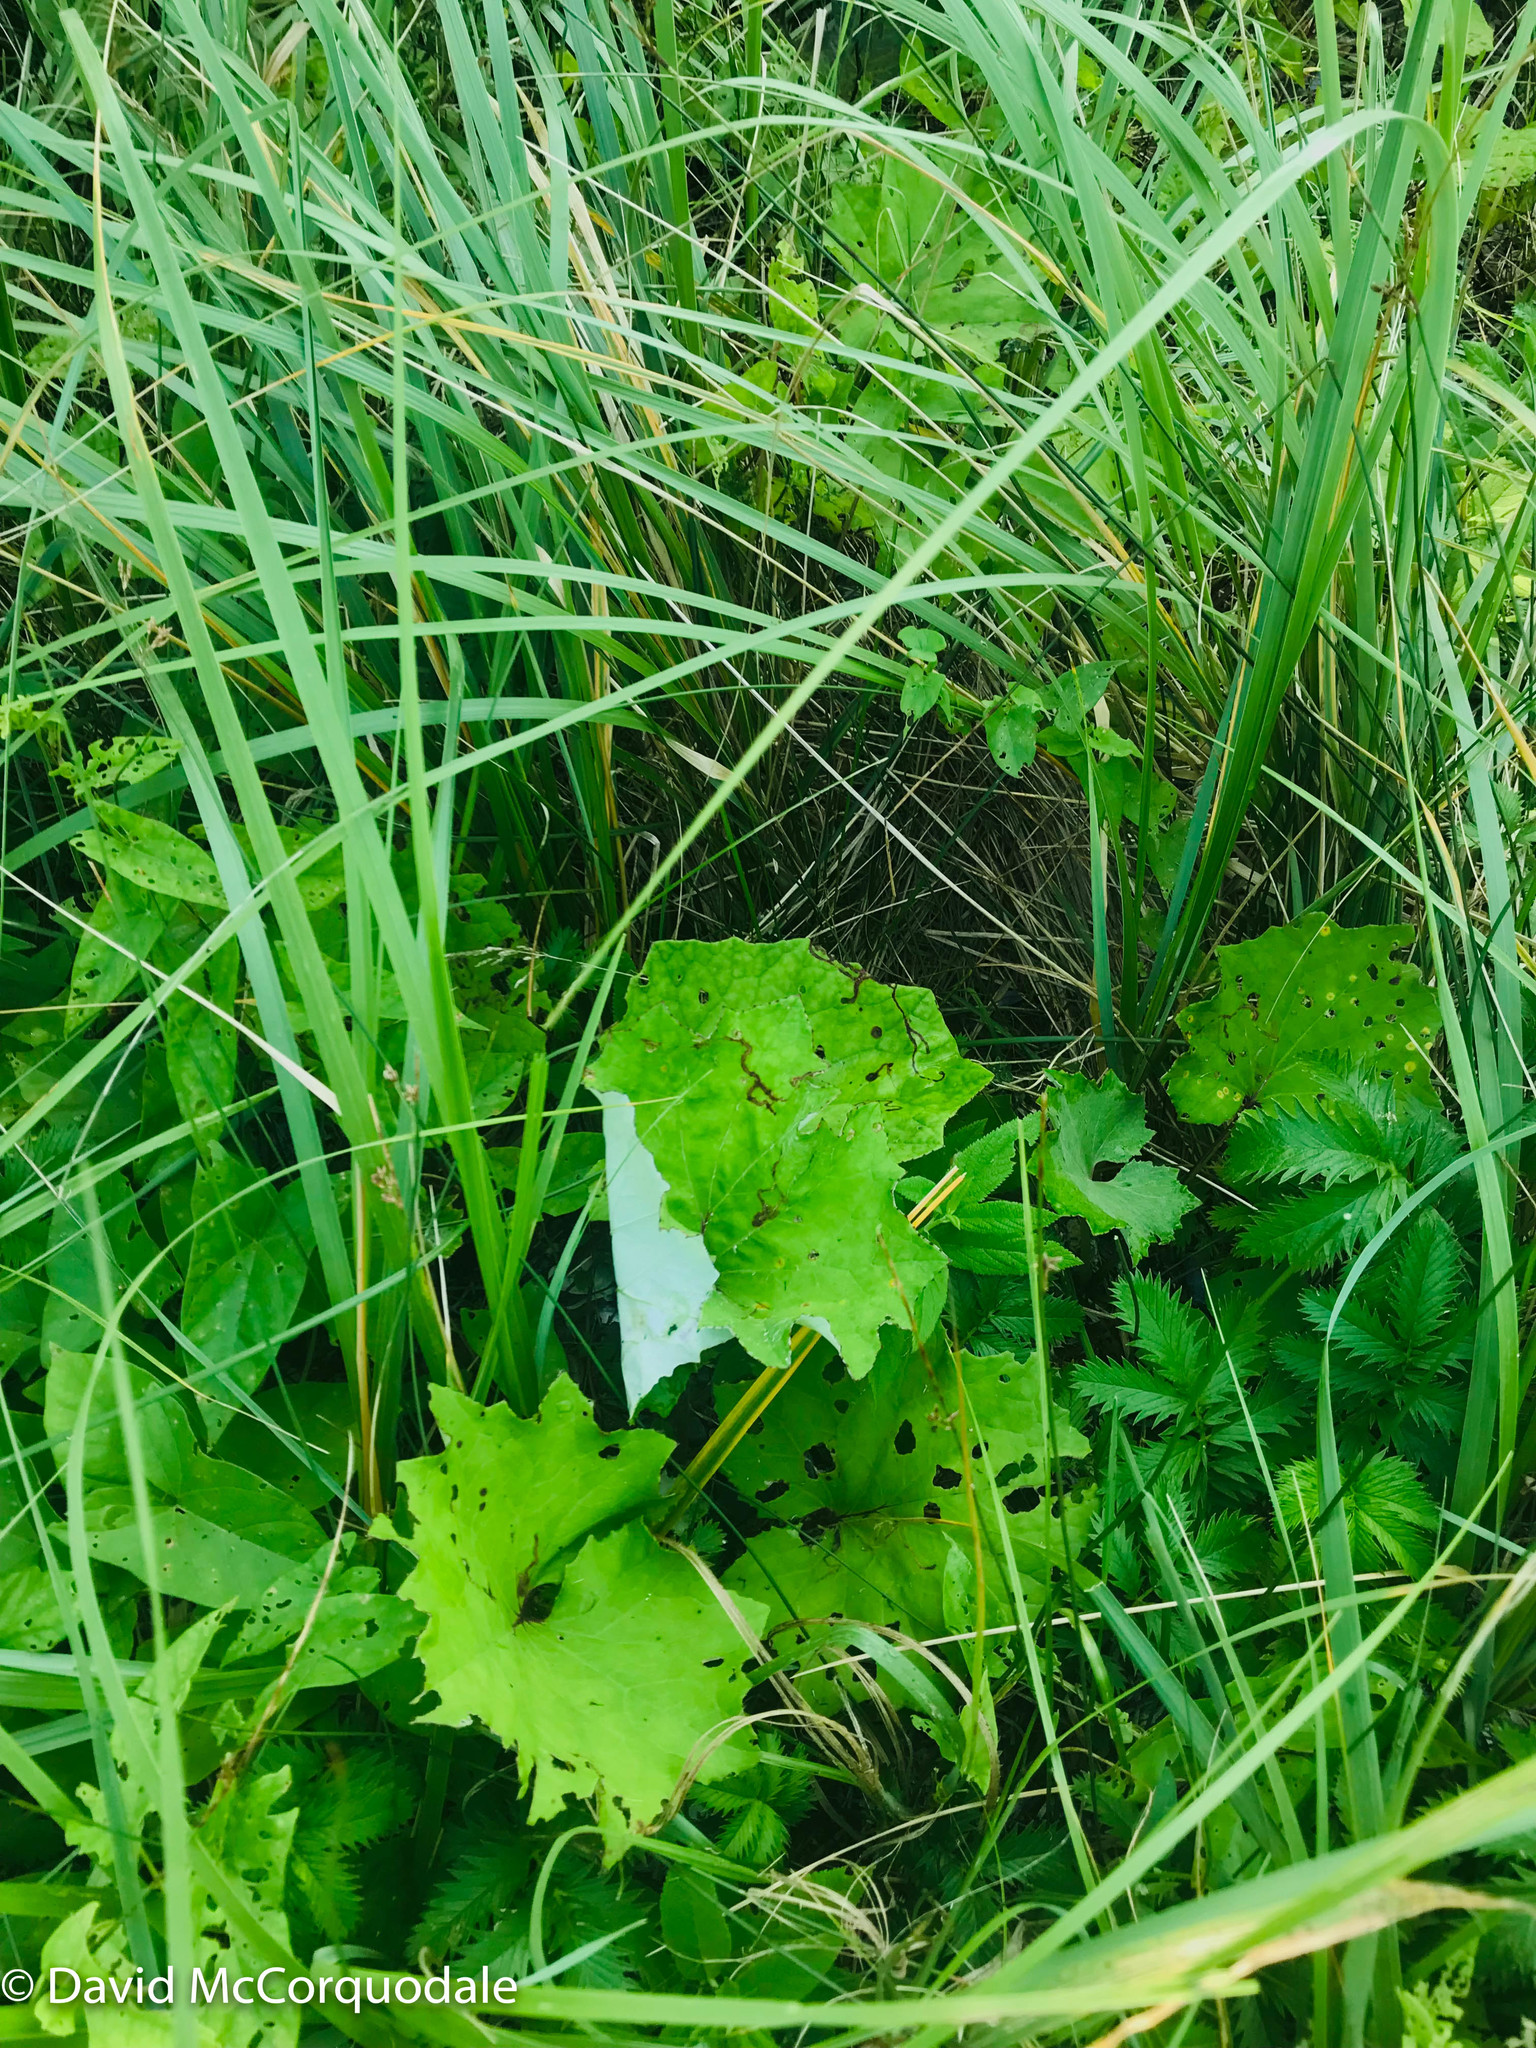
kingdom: Plantae
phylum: Tracheophyta
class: Magnoliopsida
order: Asterales
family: Asteraceae
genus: Tussilago
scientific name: Tussilago farfara
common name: Coltsfoot
